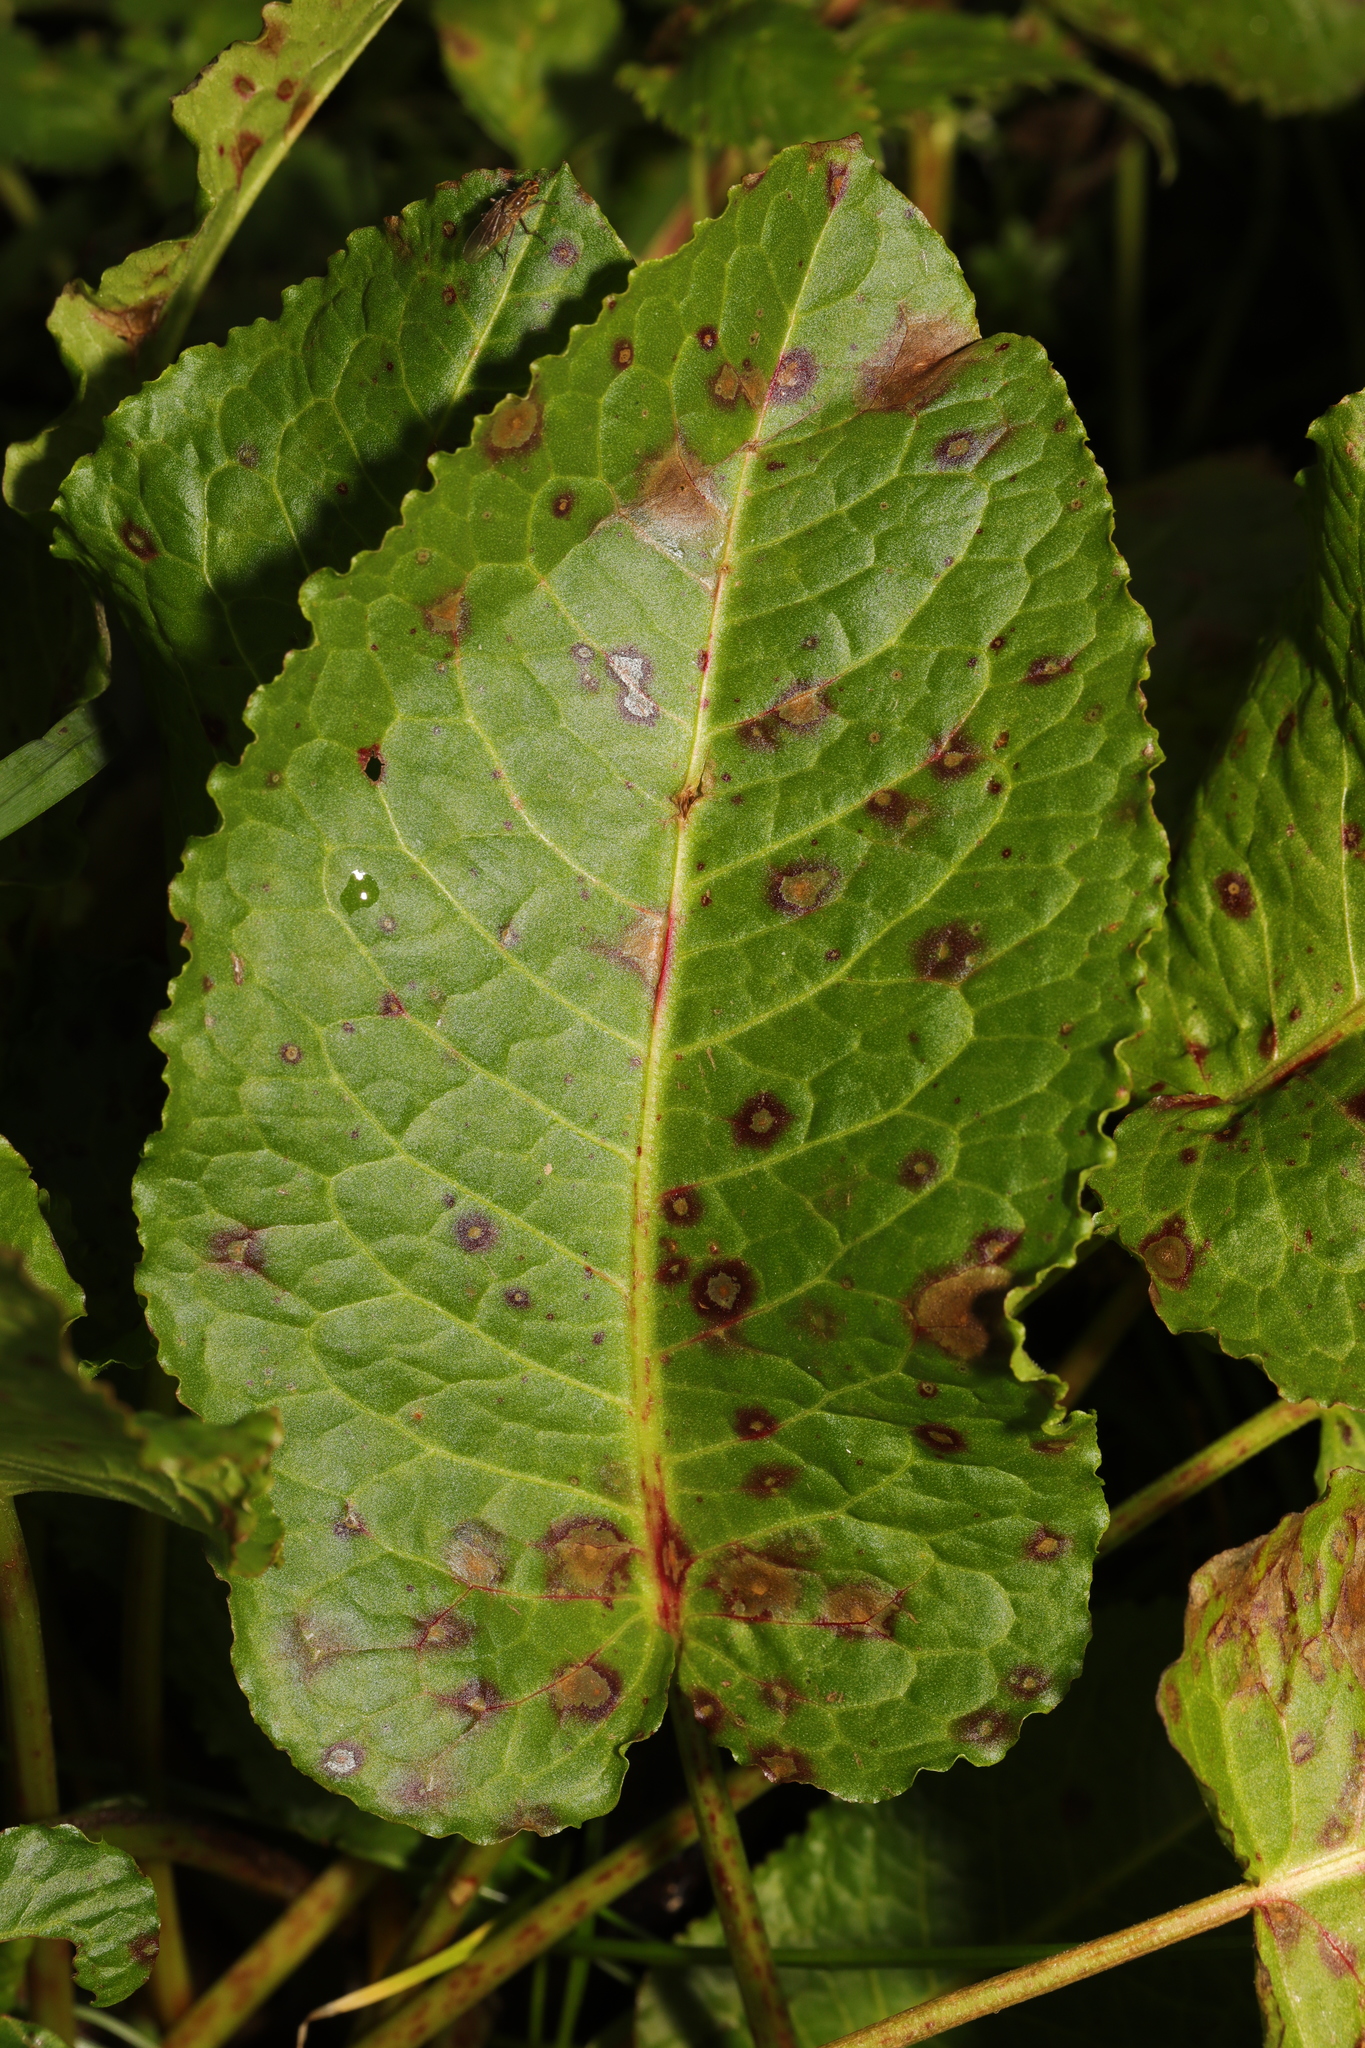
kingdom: Plantae
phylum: Tracheophyta
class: Magnoliopsida
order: Caryophyllales
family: Polygonaceae
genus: Rumex
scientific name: Rumex obtusifolius
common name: Bitter dock
